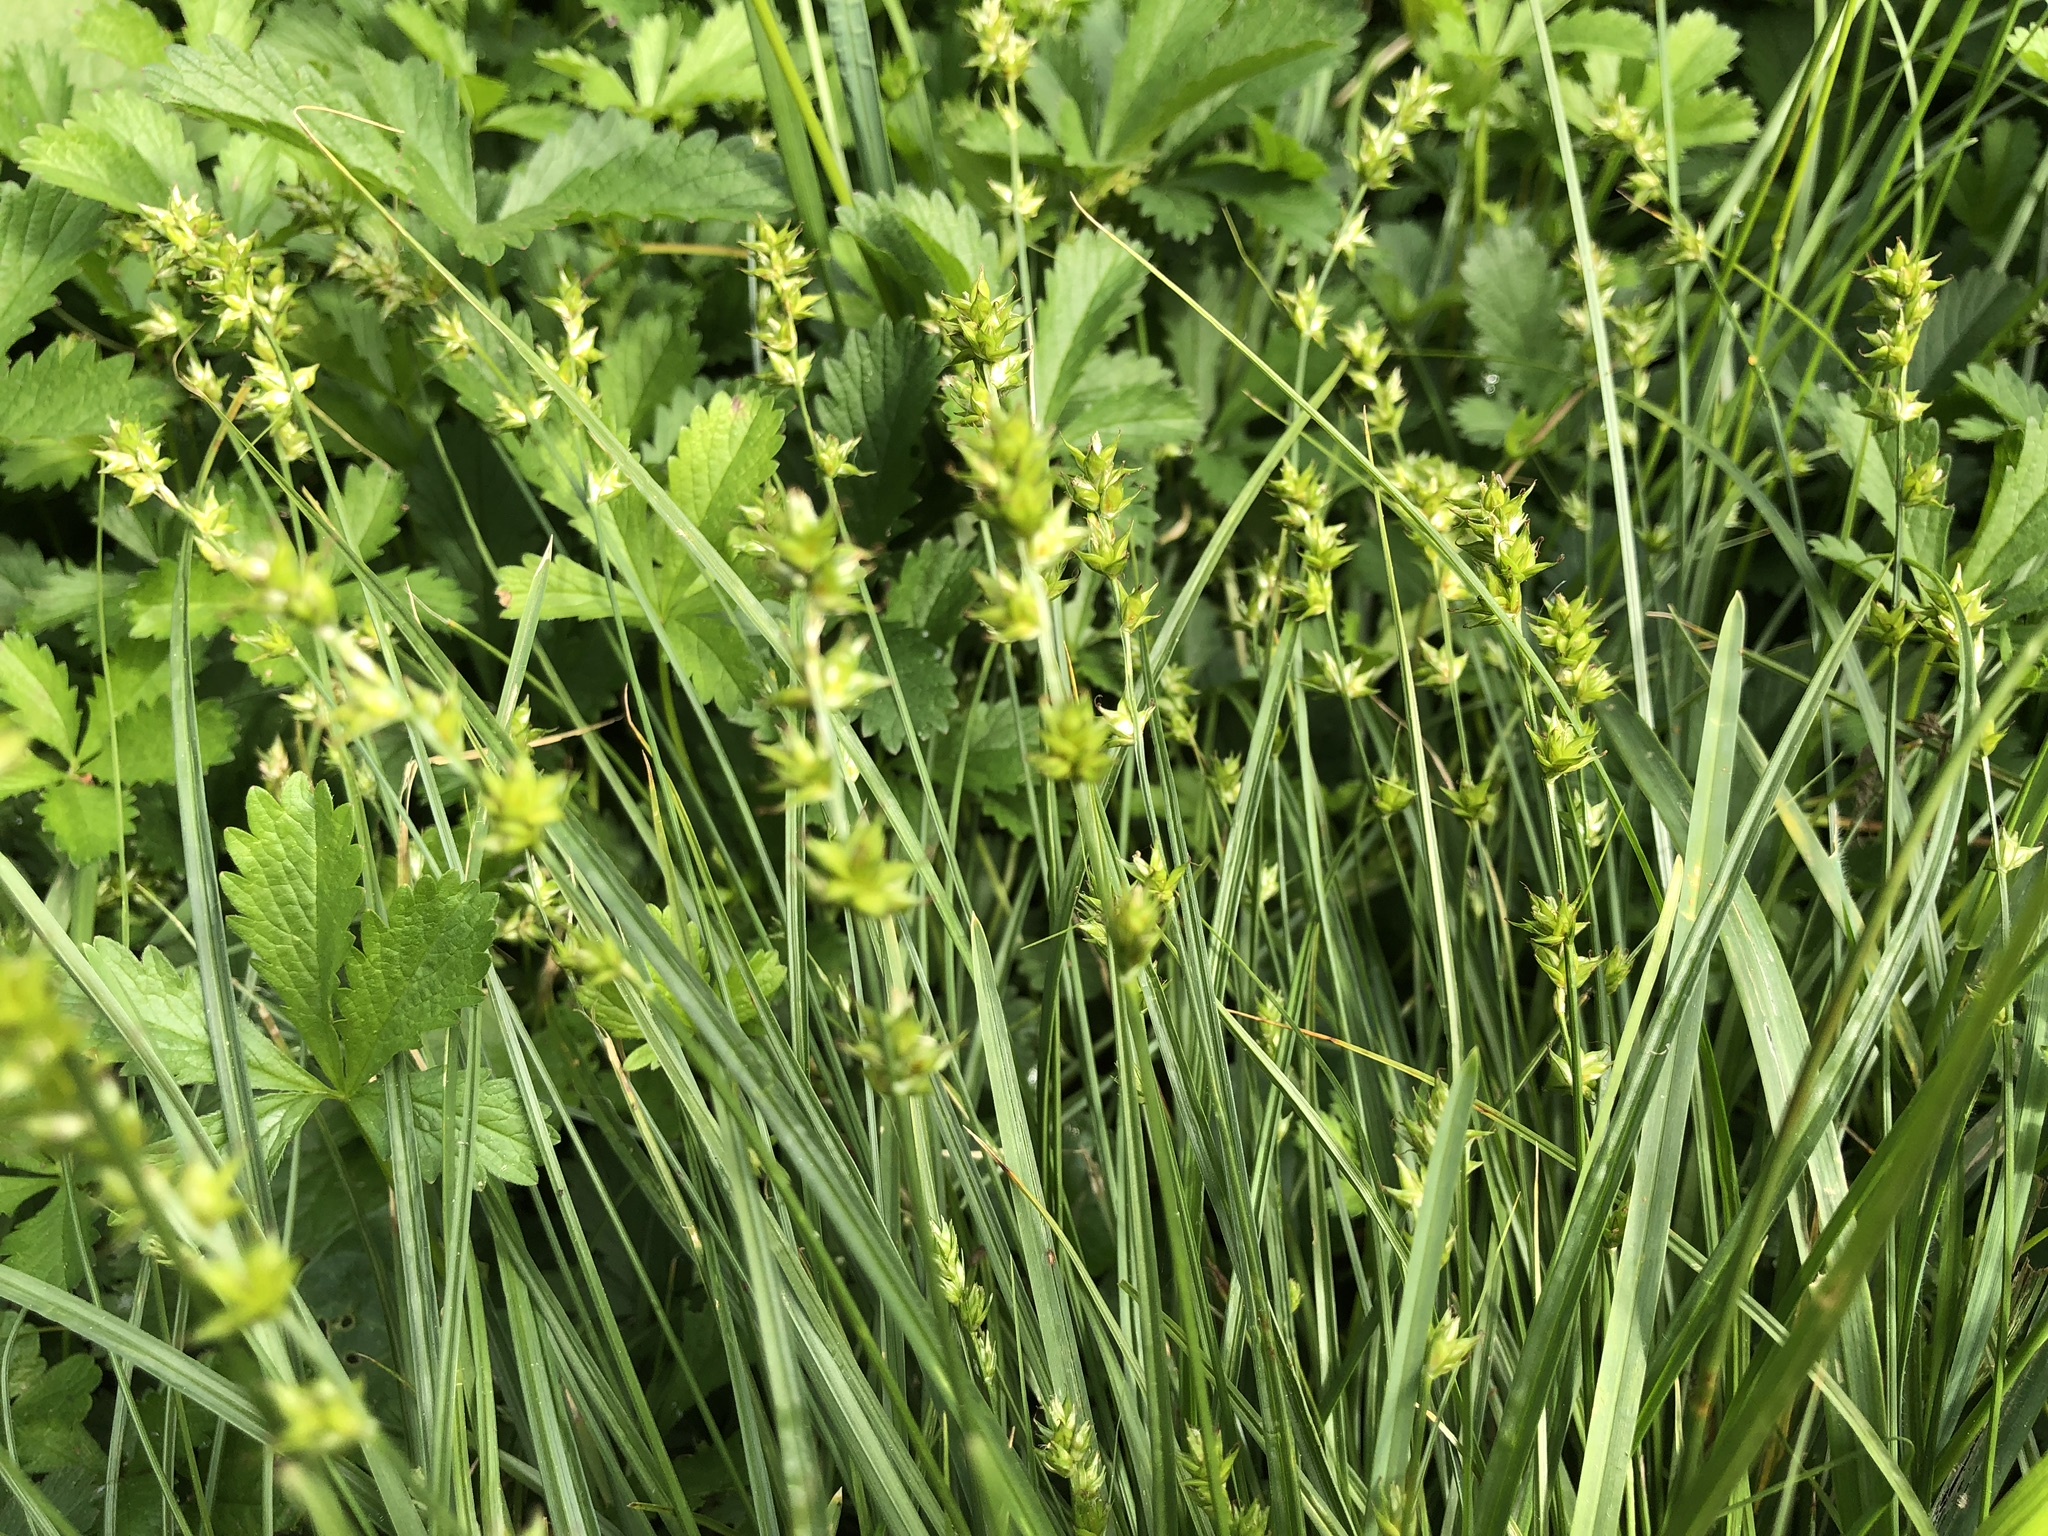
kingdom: Plantae
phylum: Tracheophyta
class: Liliopsida
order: Poales
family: Cyperaceae
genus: Carex
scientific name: Carex muricata
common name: Rough sedge
